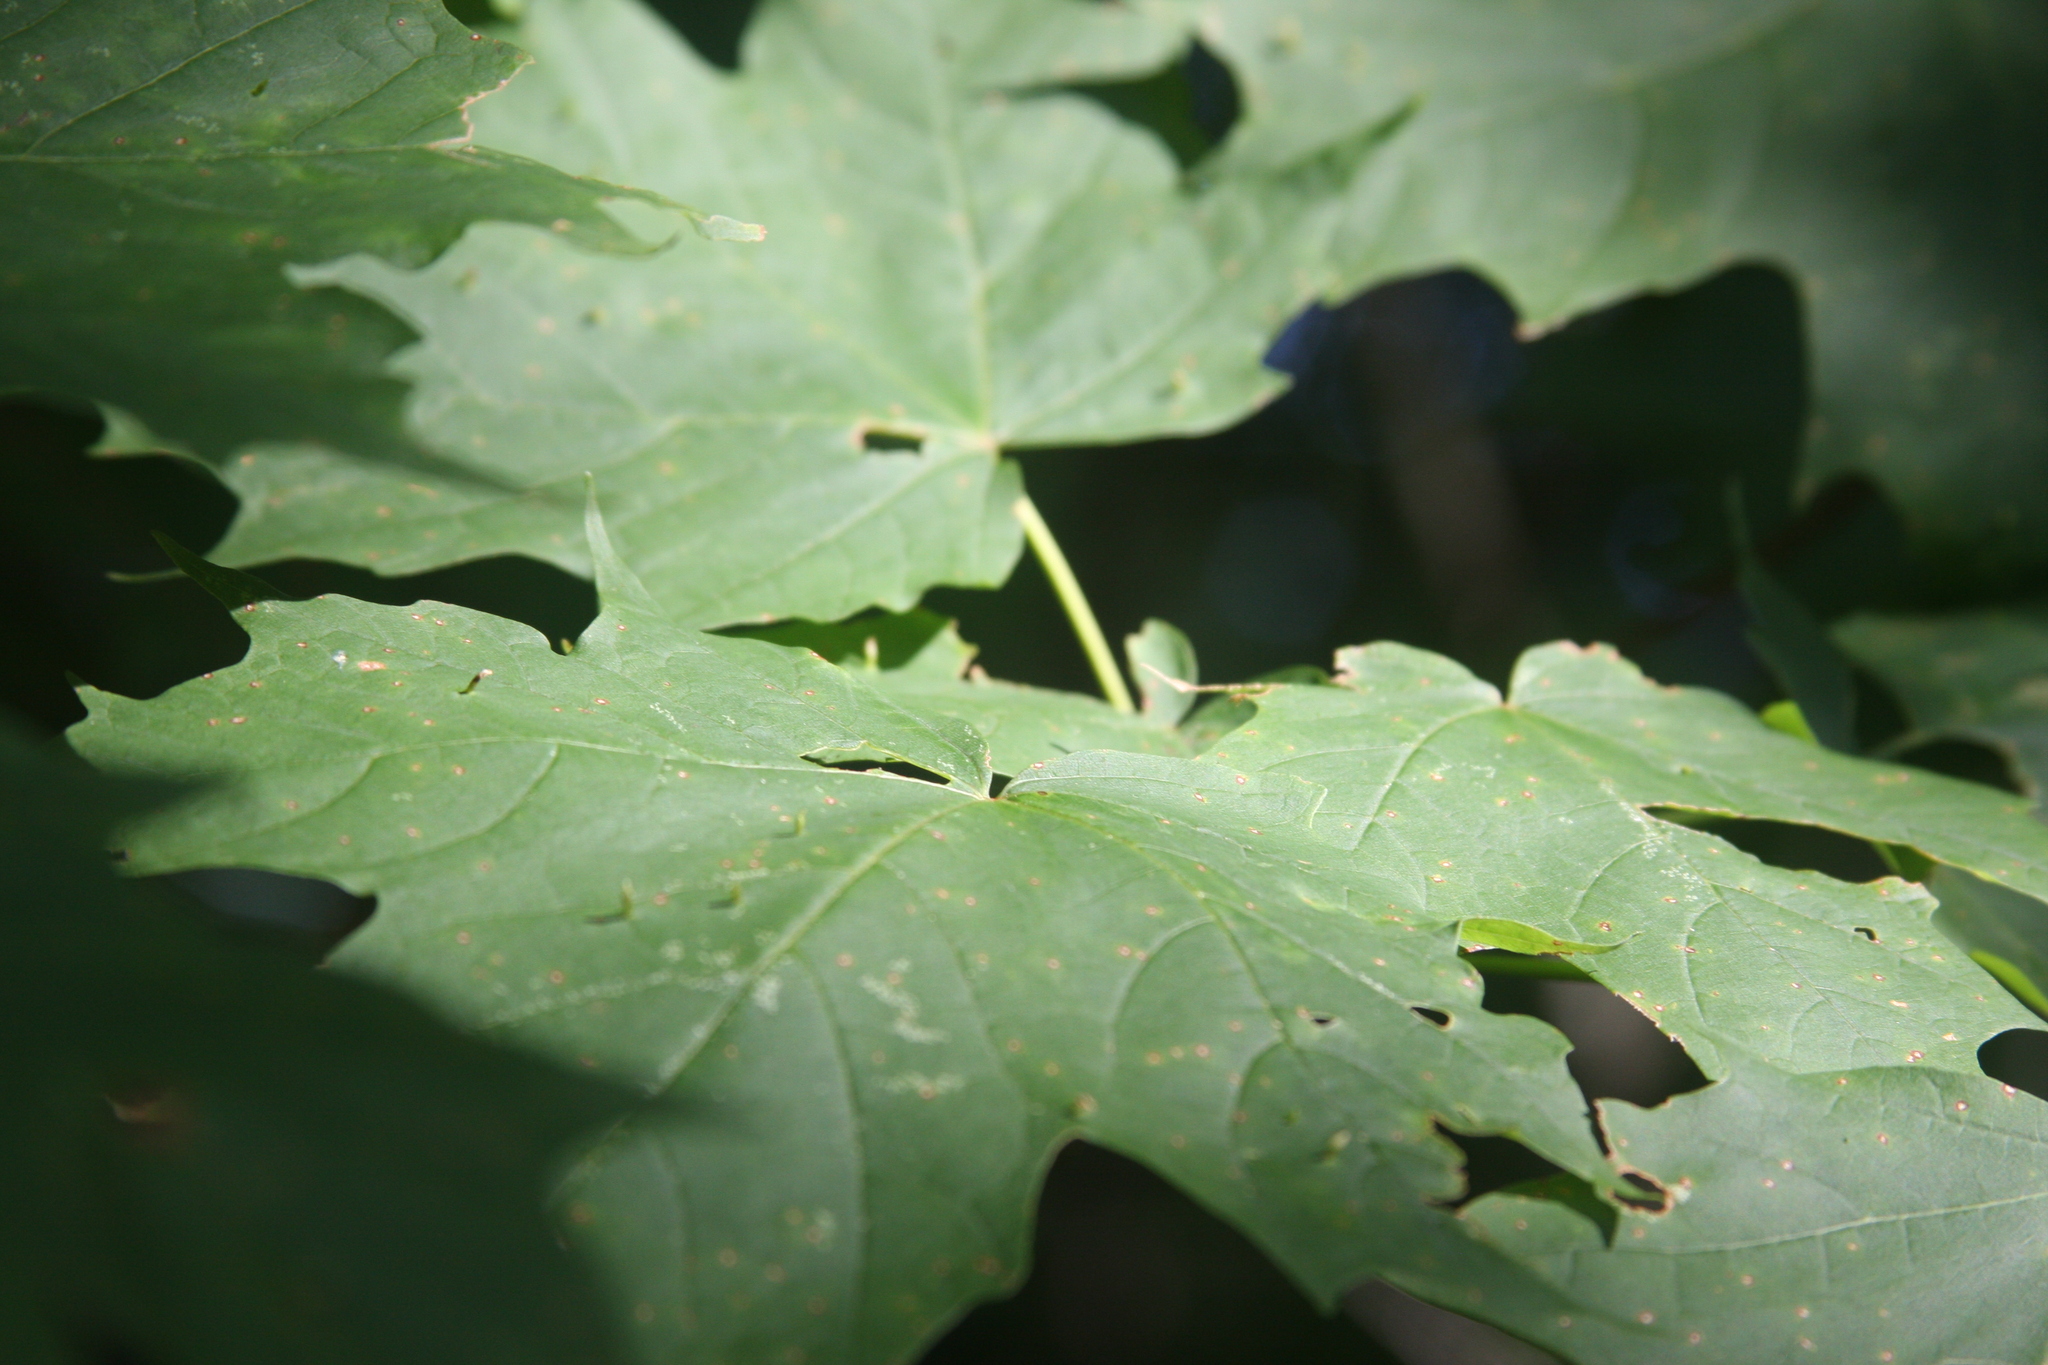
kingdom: Animalia
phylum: Arthropoda
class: Arachnida
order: Trombidiformes
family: Eriophyidae
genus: Vasates
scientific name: Vasates aceriscrumena
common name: Maple spindle gall mite
